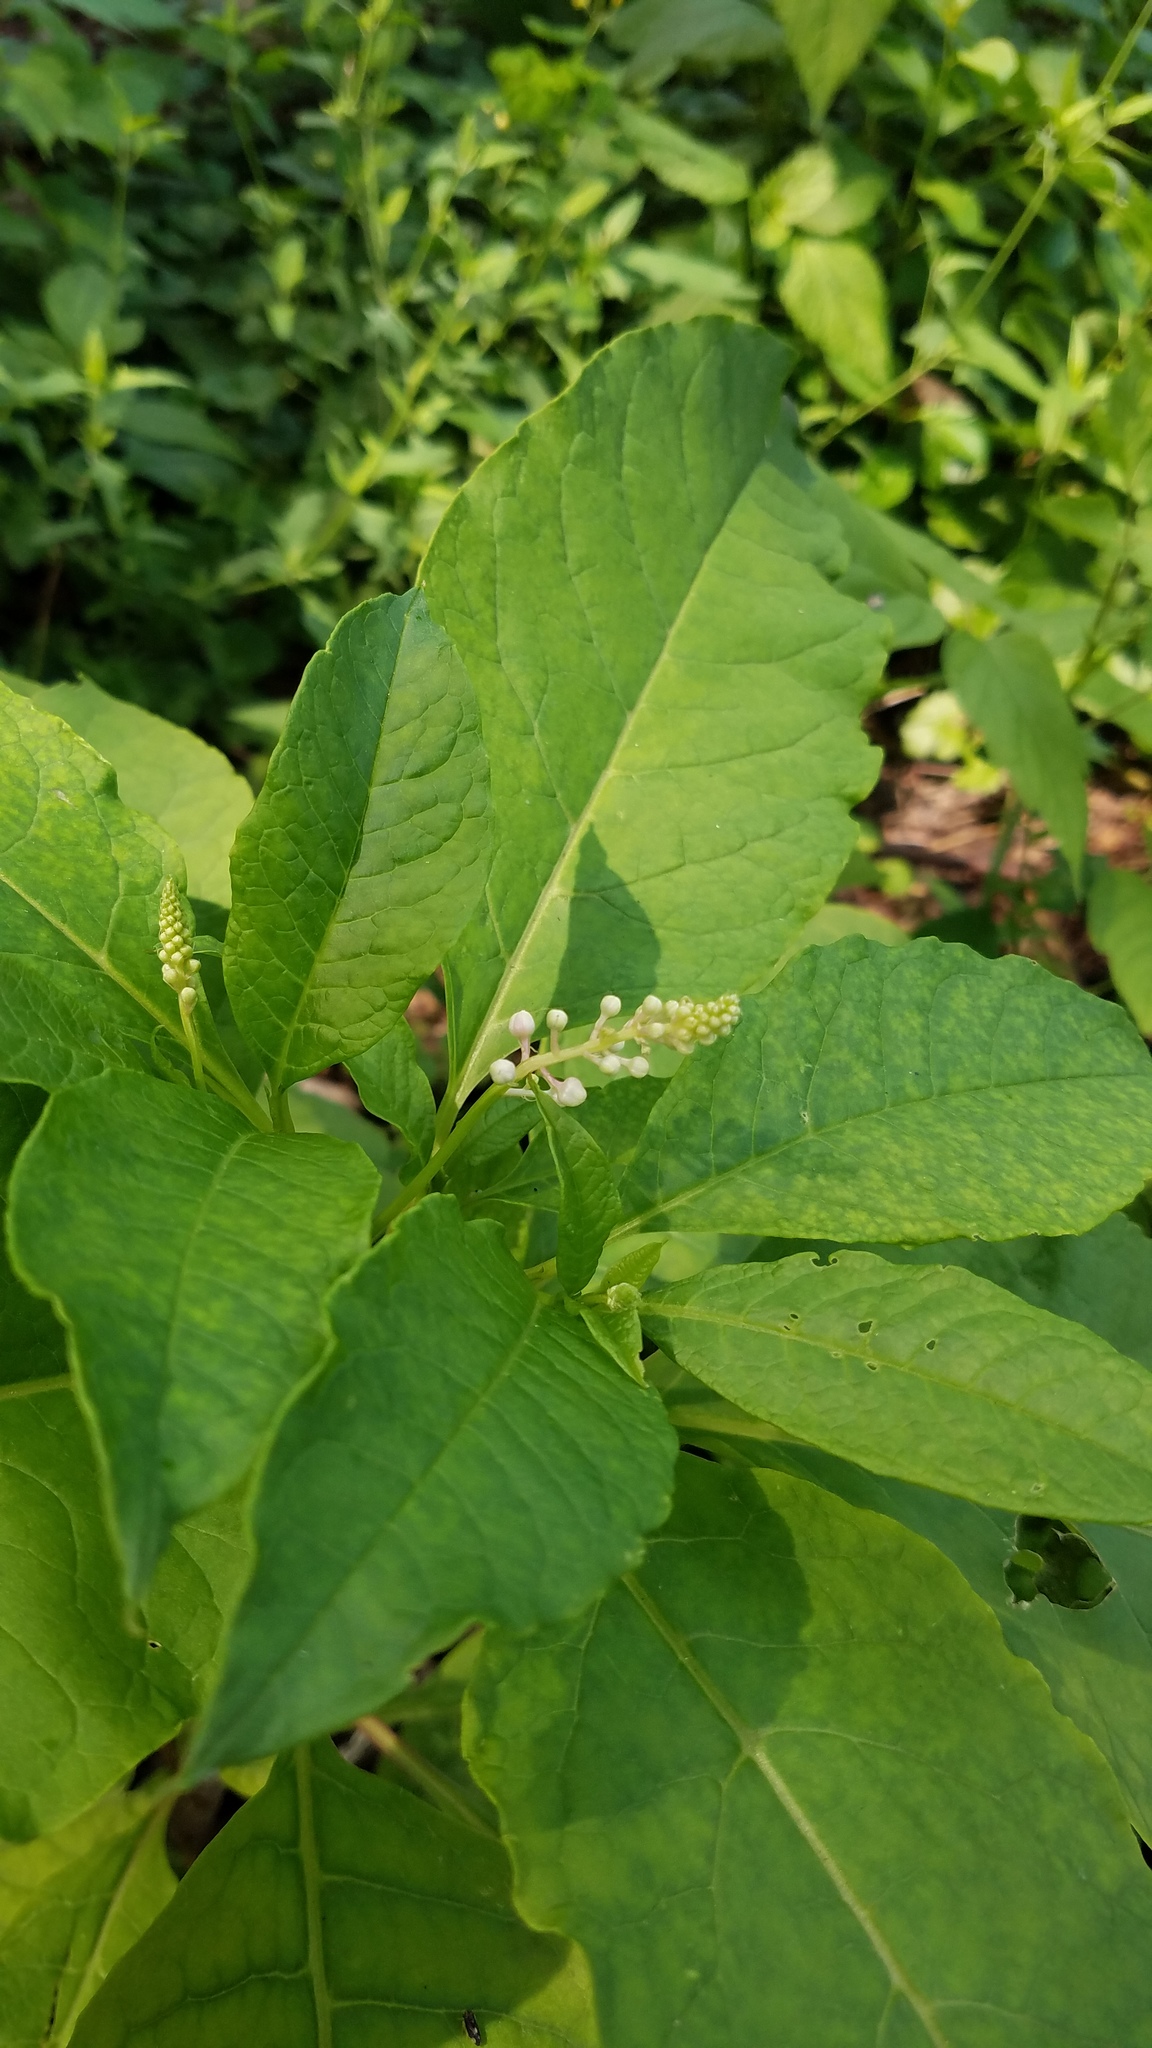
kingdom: Plantae
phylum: Tracheophyta
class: Magnoliopsida
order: Caryophyllales
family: Phytolaccaceae
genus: Phytolacca
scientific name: Phytolacca americana
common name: American pokeweed
